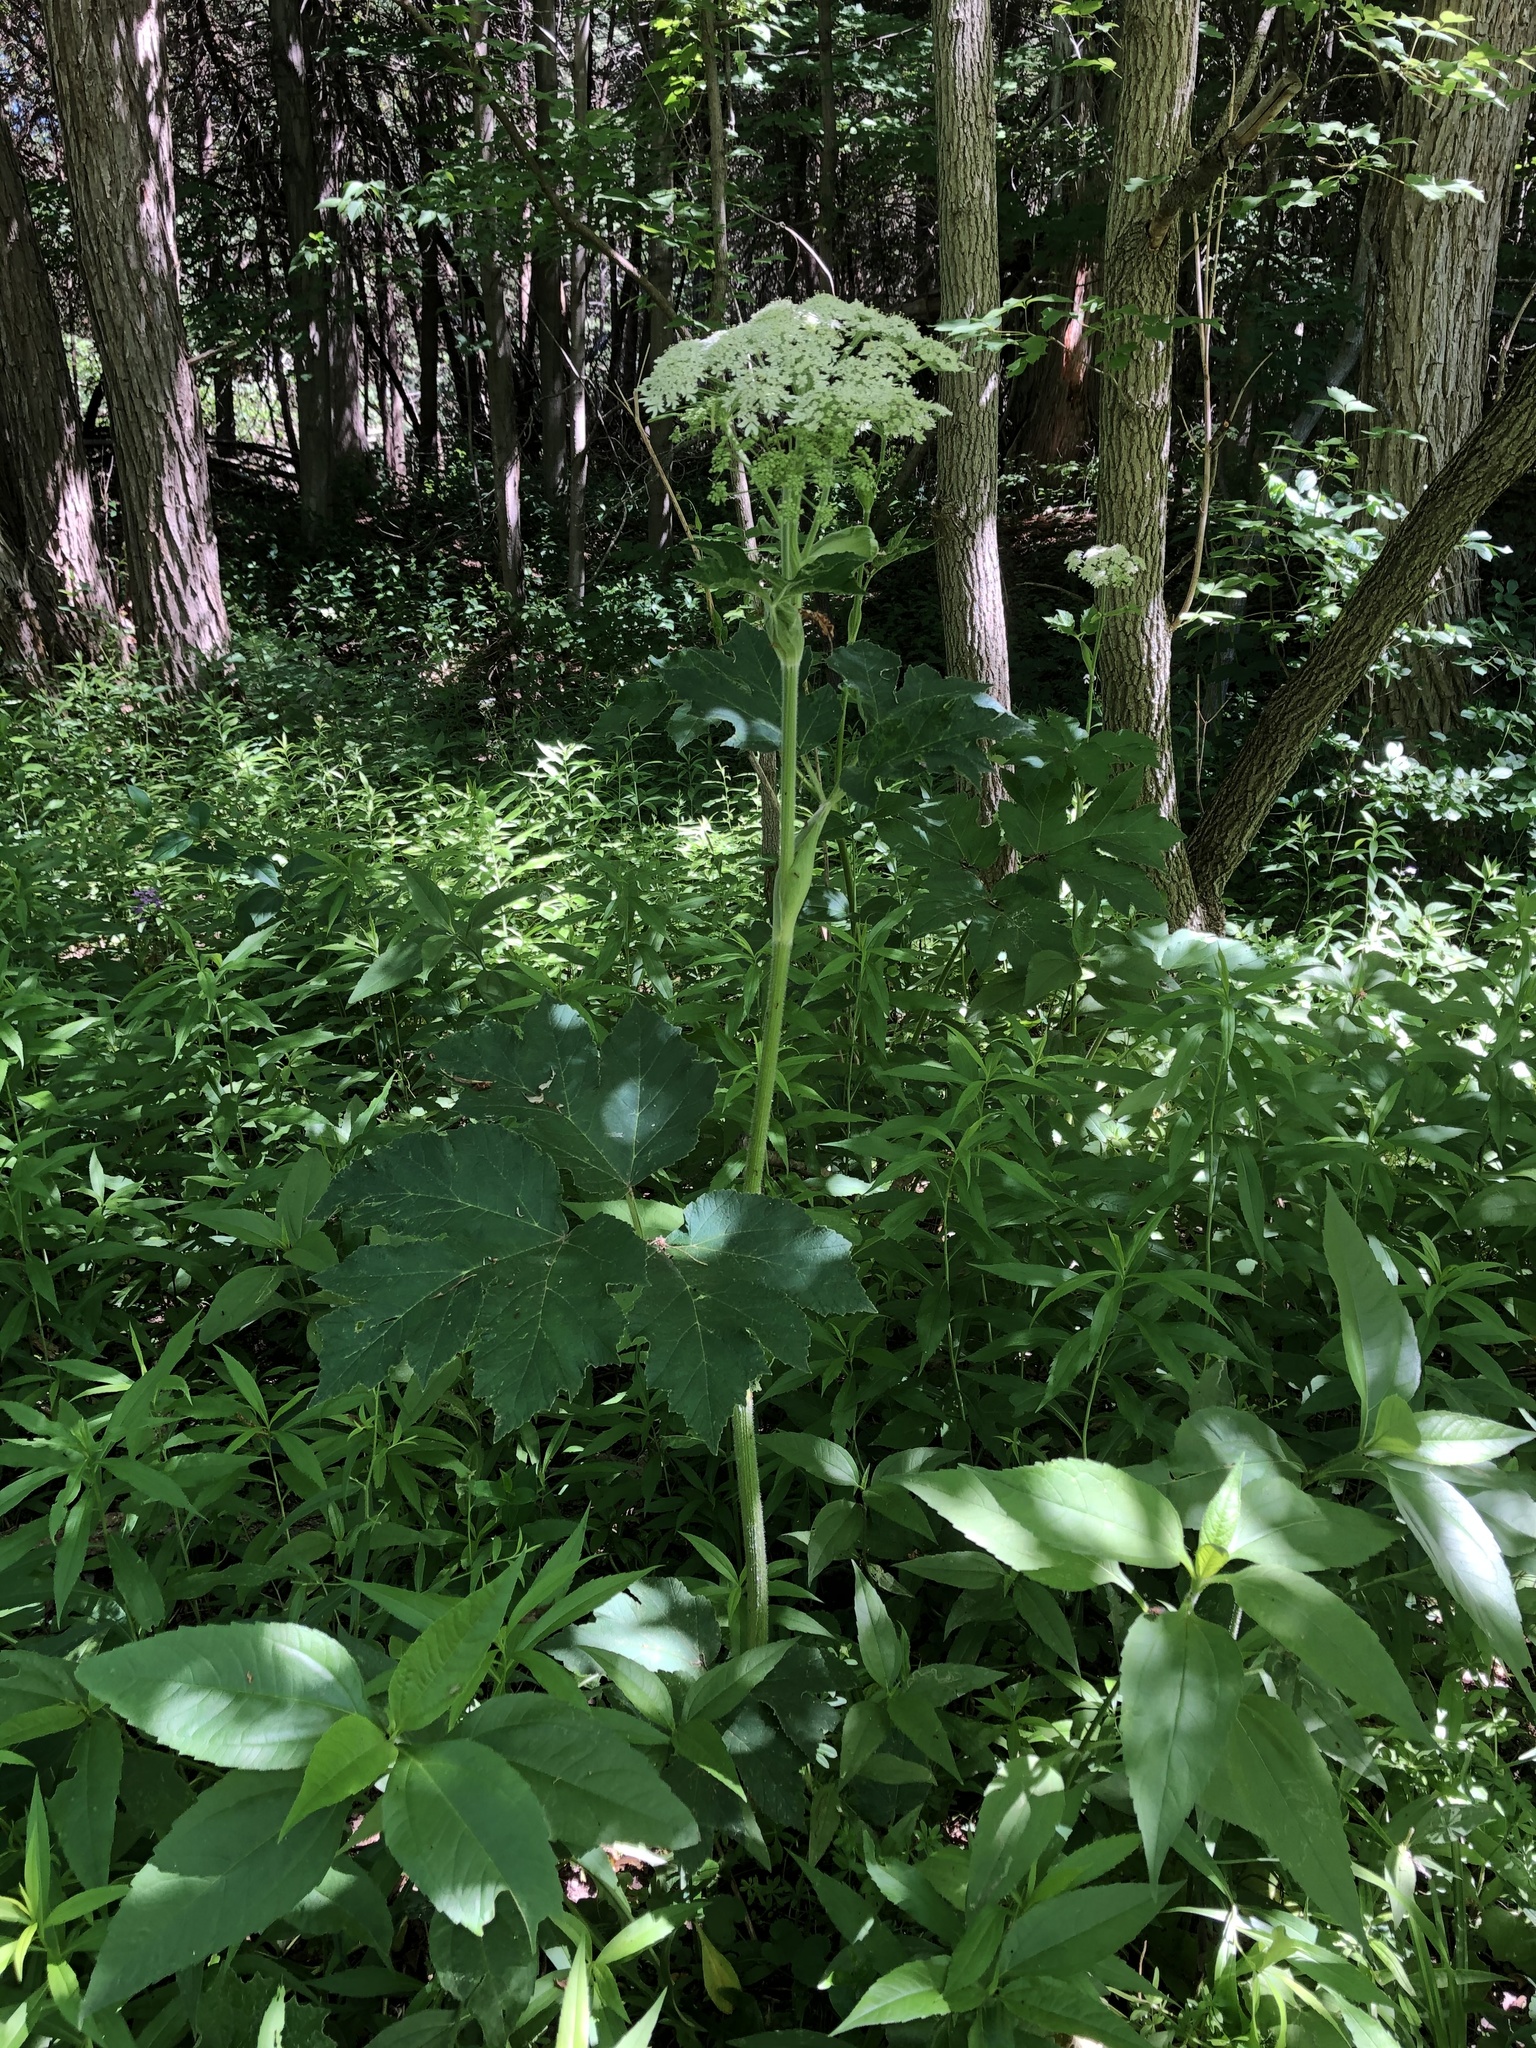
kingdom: Plantae
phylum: Tracheophyta
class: Magnoliopsida
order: Apiales
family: Apiaceae
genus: Heracleum
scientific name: Heracleum maximum
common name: American cow parsnip
